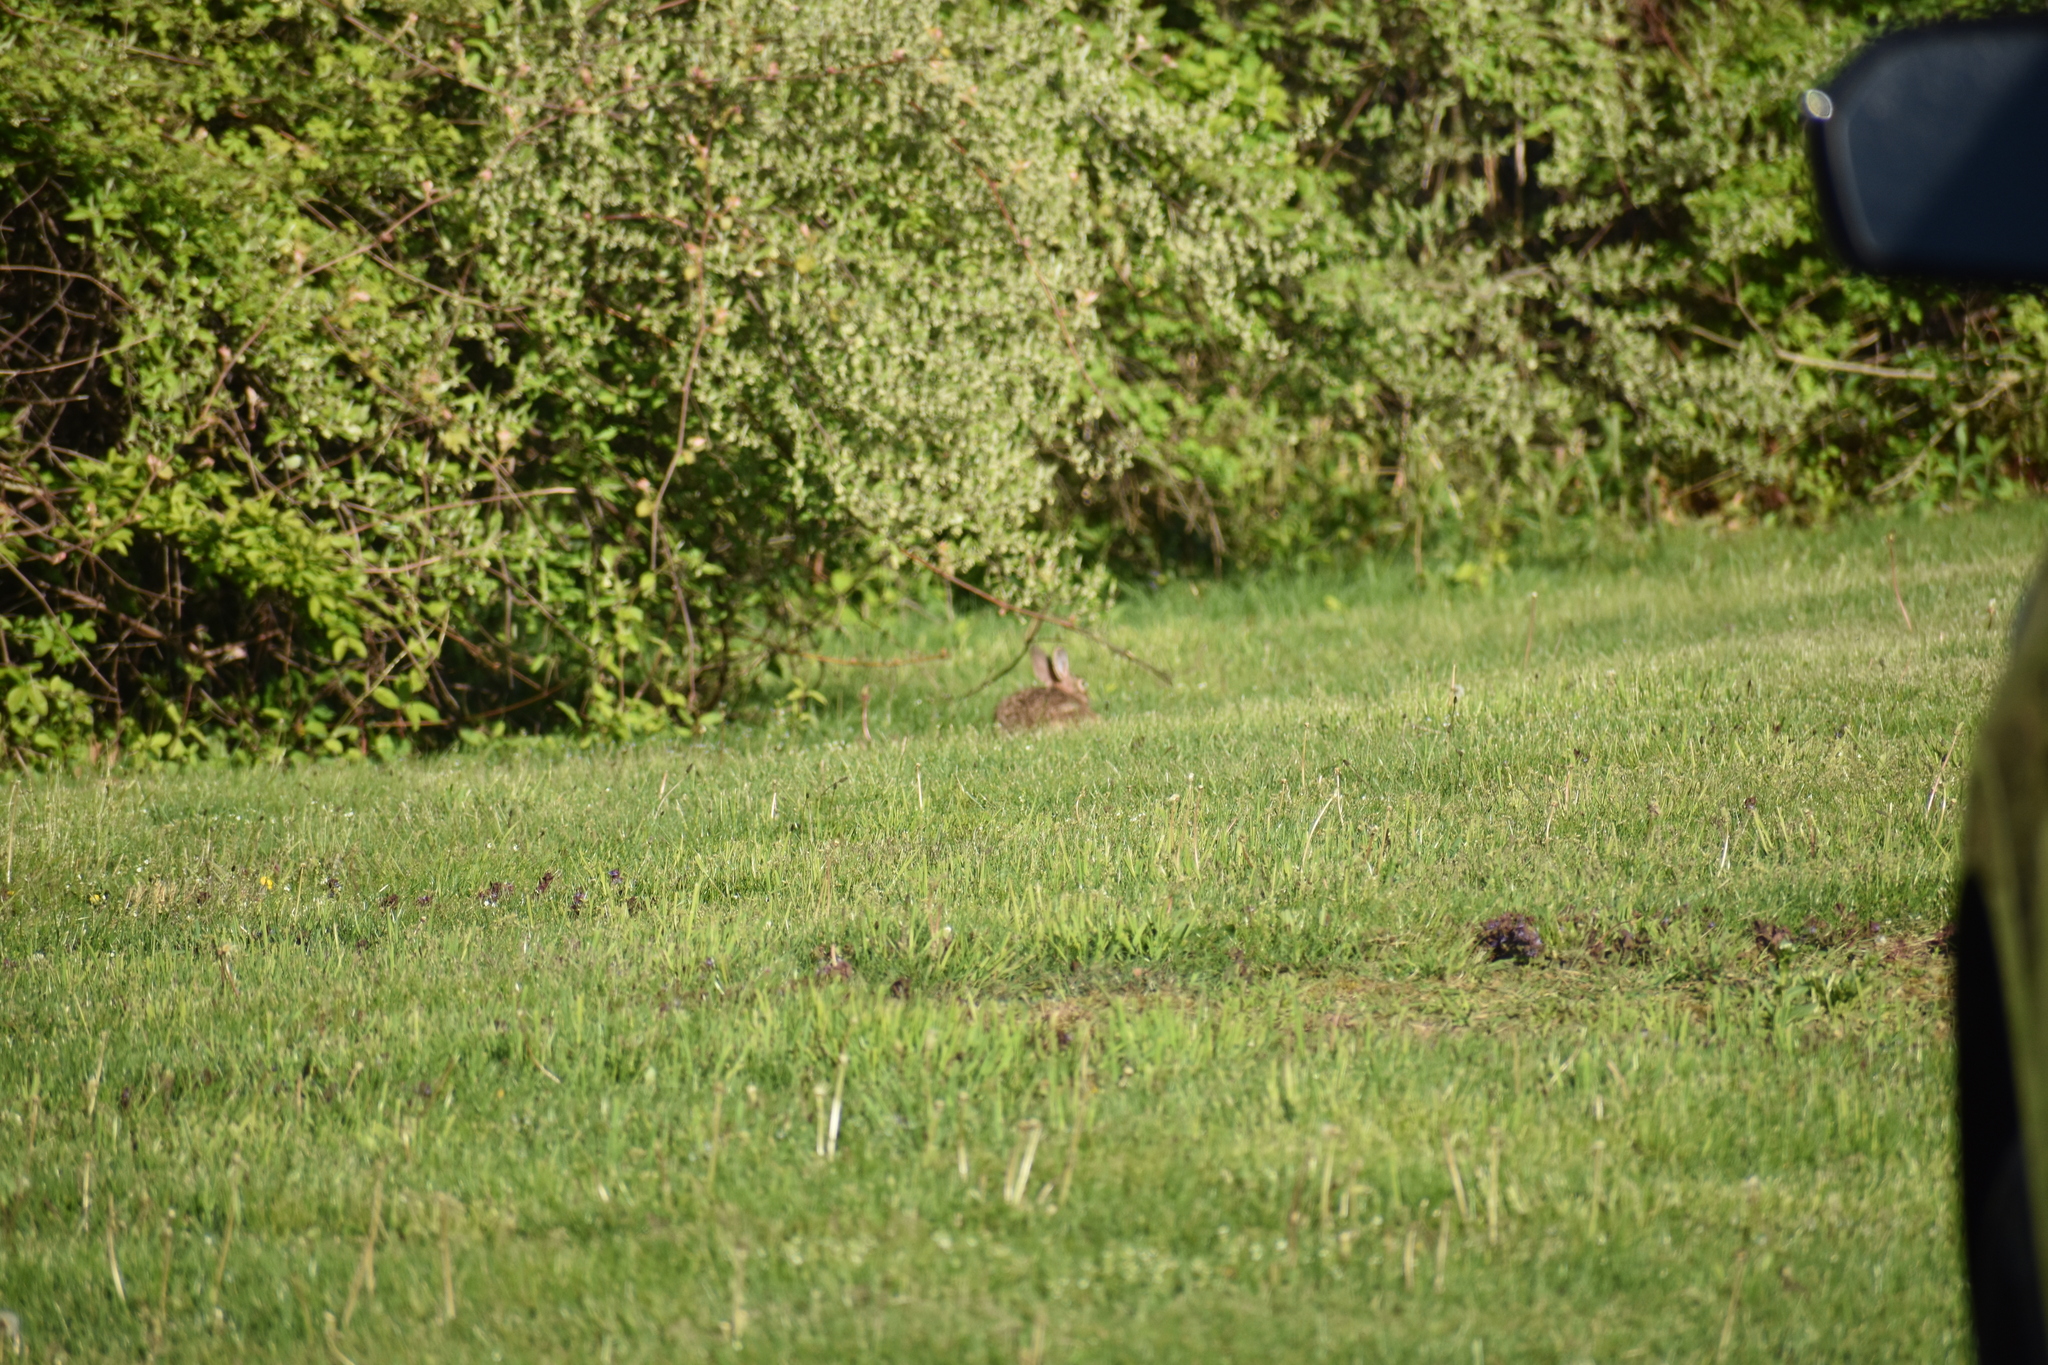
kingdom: Animalia
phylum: Chordata
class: Mammalia
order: Lagomorpha
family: Leporidae
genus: Sylvilagus
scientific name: Sylvilagus floridanus
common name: Eastern cottontail
